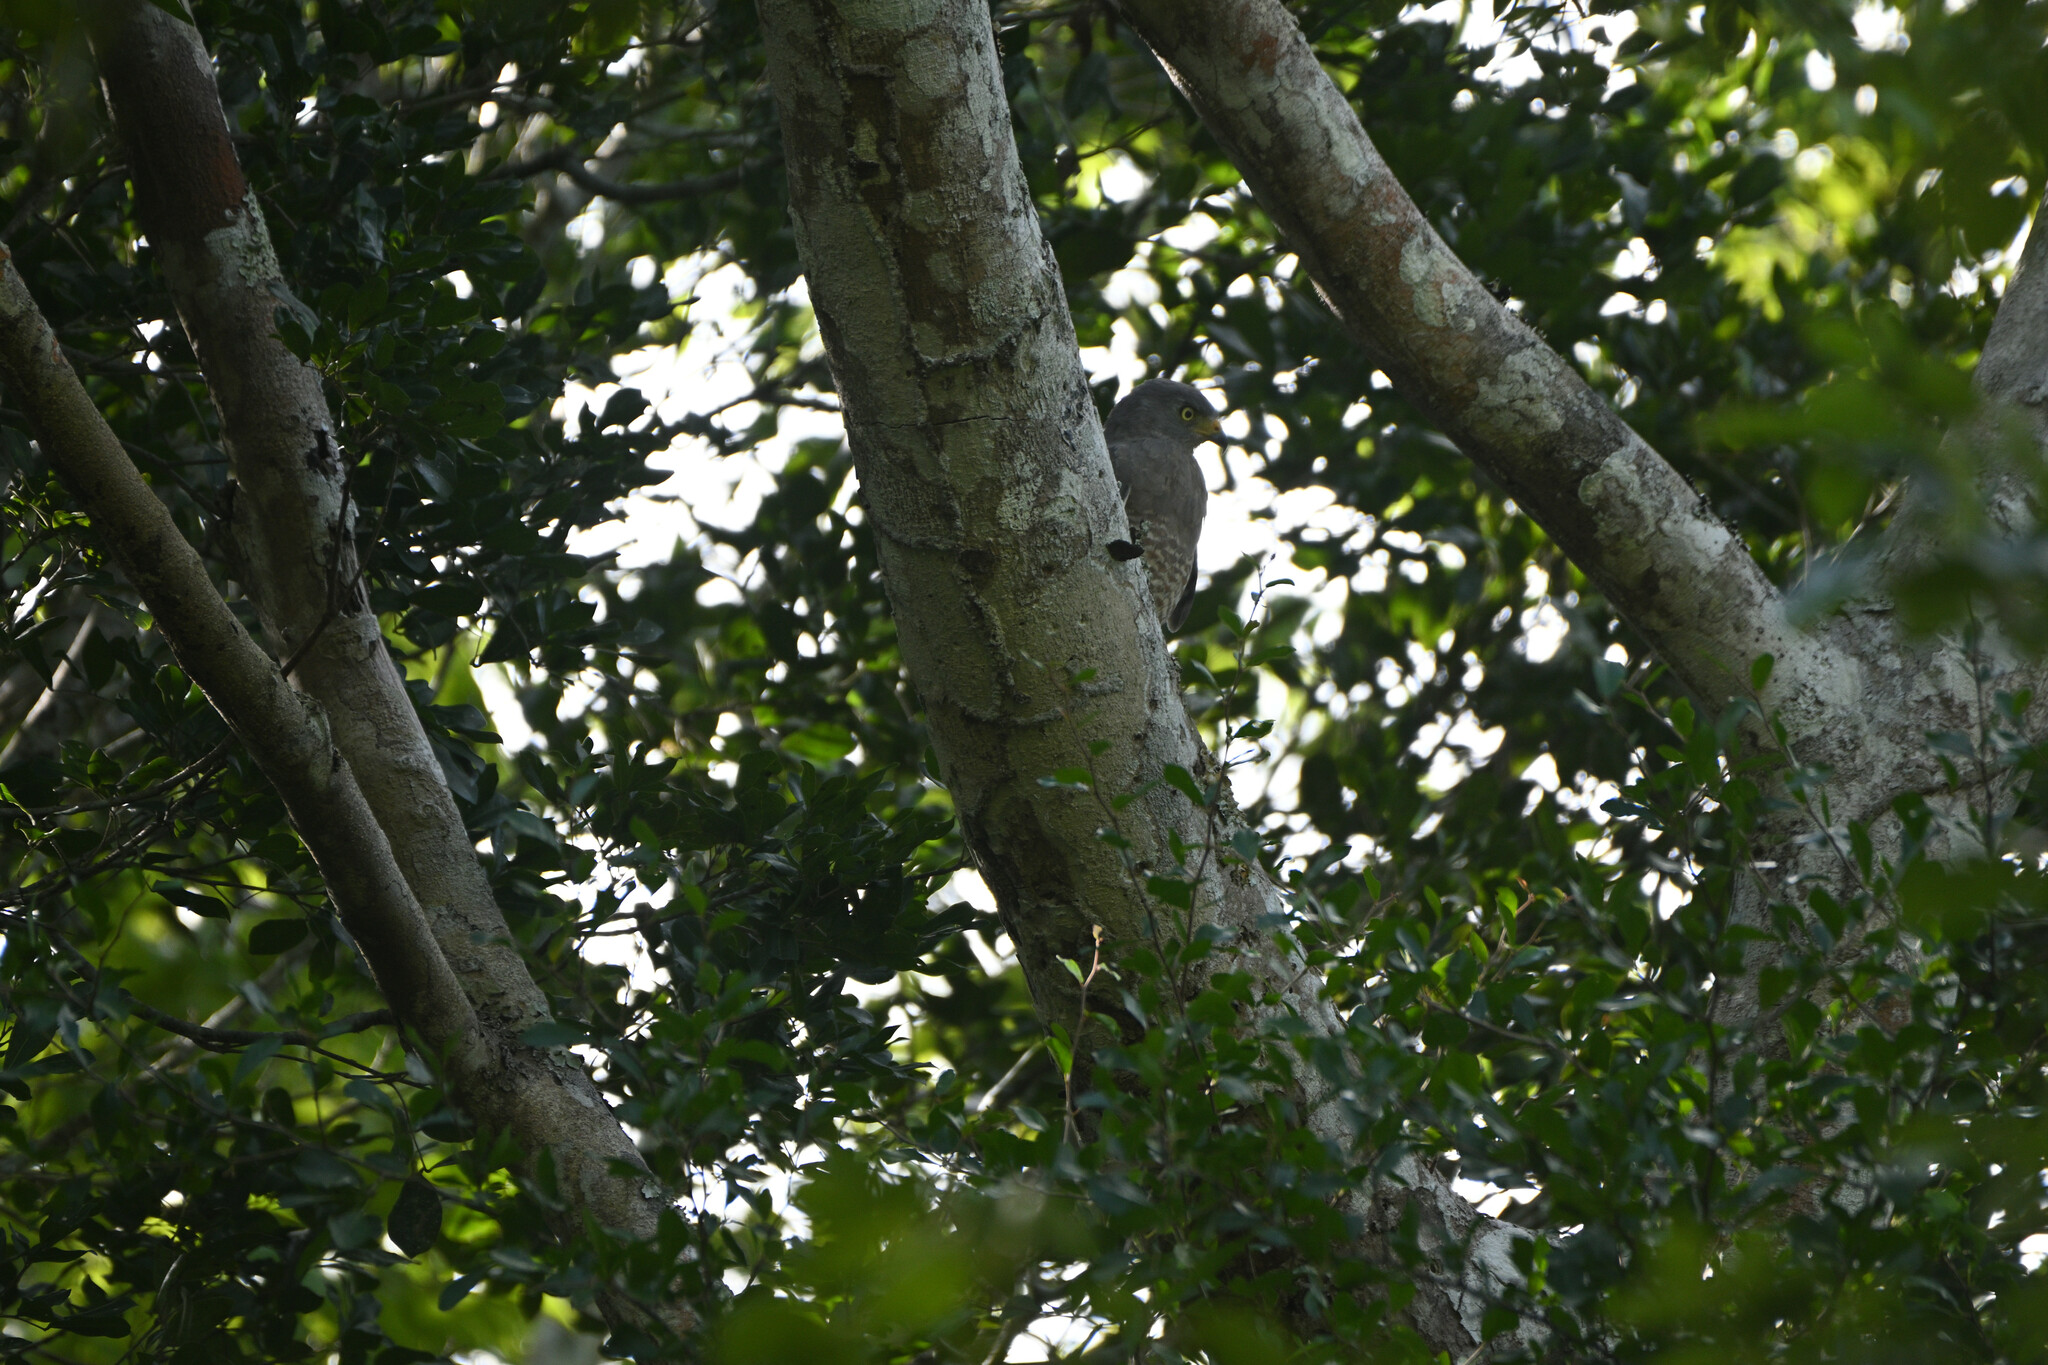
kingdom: Animalia
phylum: Chordata
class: Aves
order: Accipitriformes
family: Accipitridae
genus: Rupornis
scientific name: Rupornis magnirostris
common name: Roadside hawk
